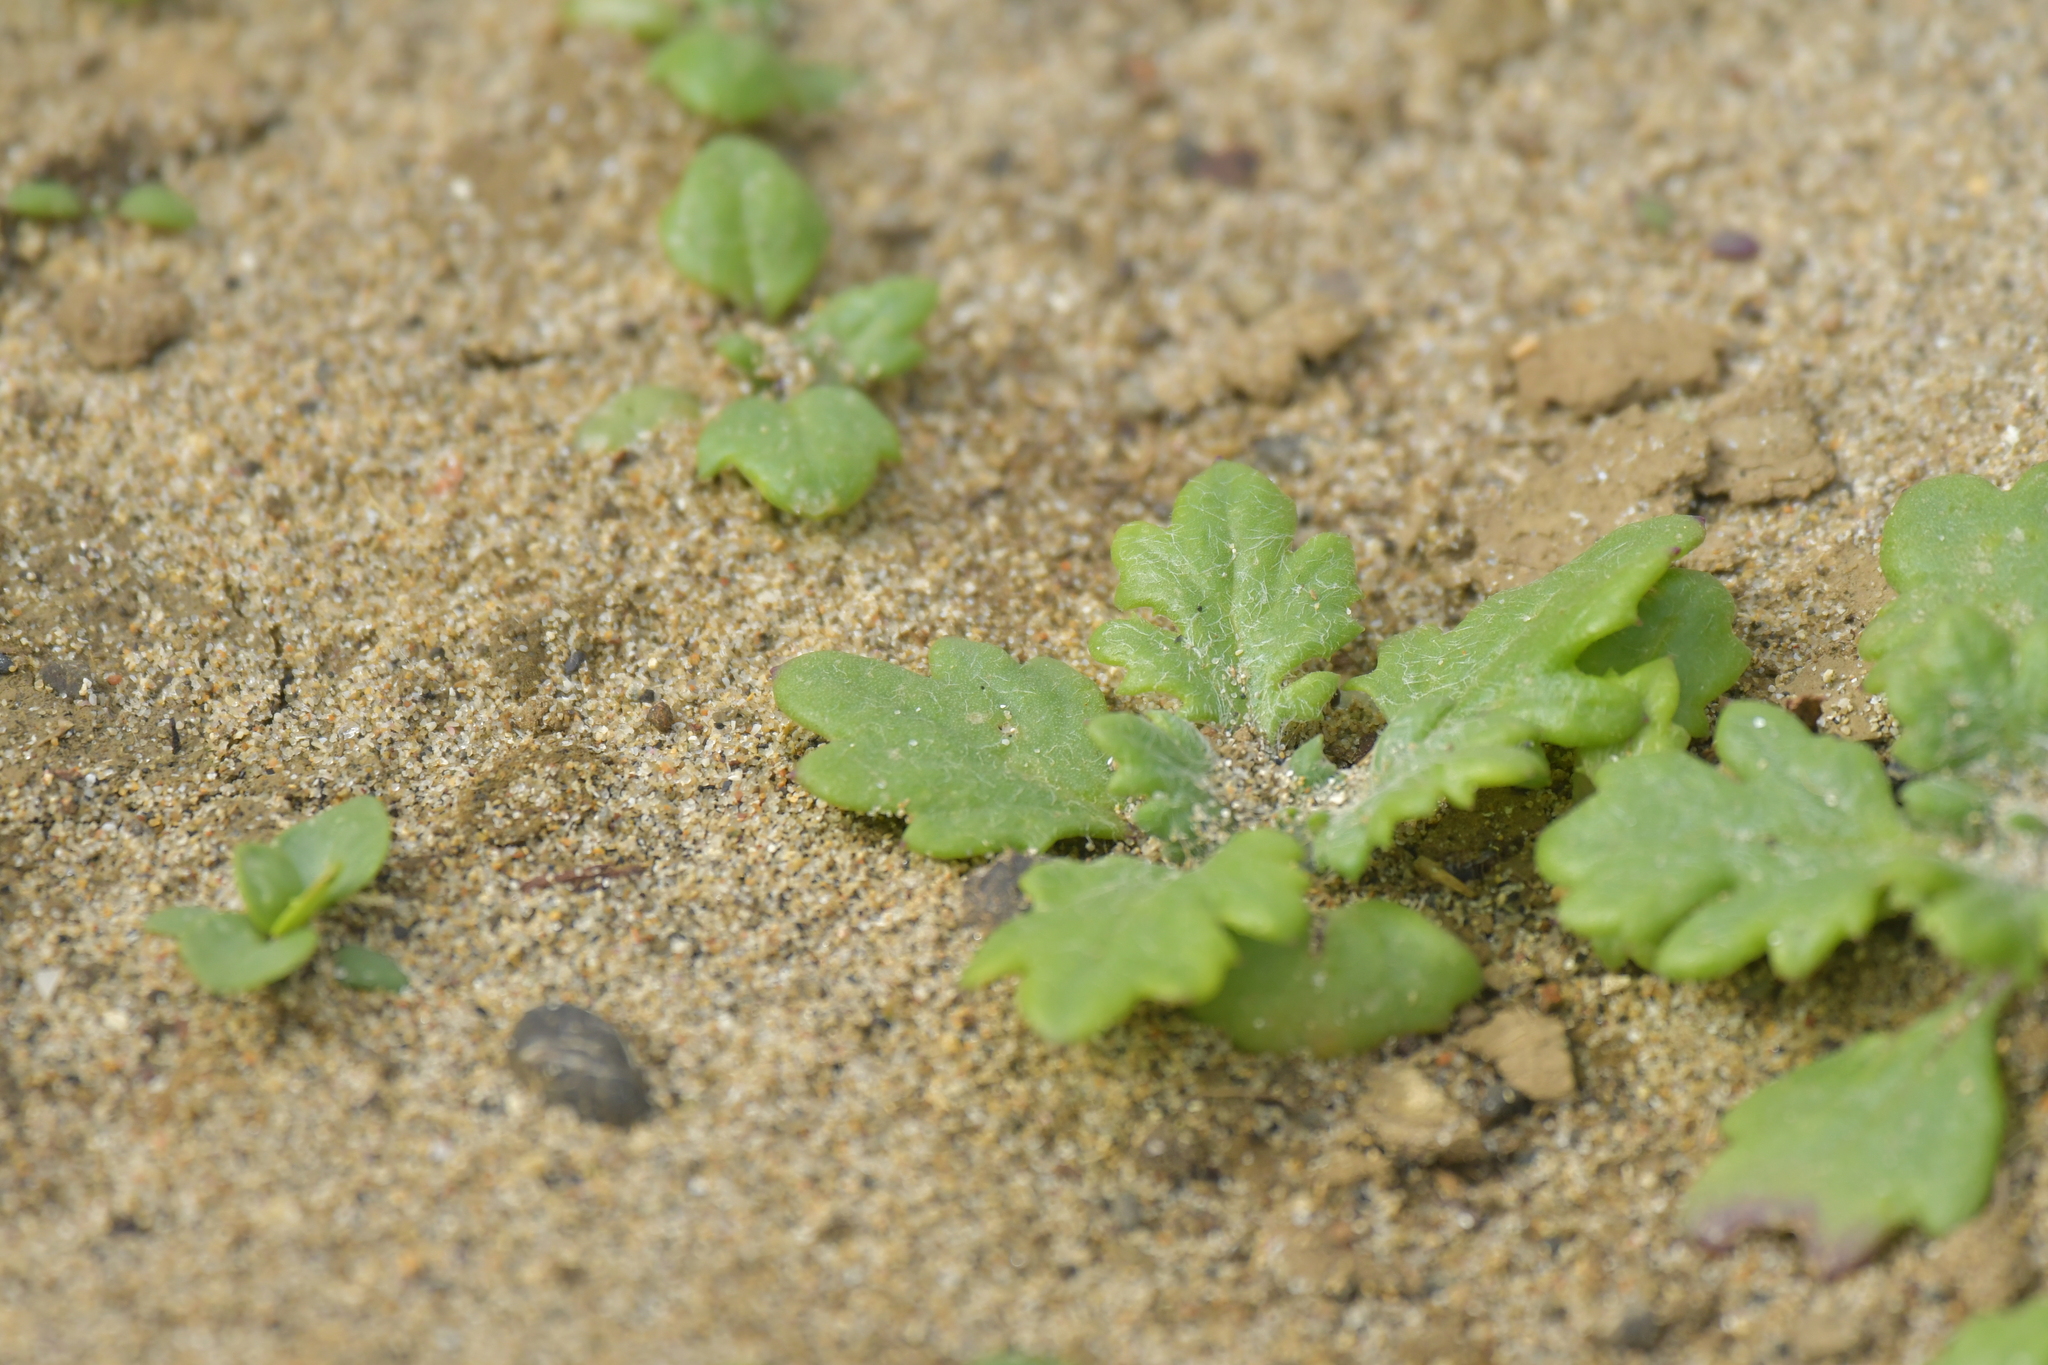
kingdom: Plantae
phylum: Tracheophyta
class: Magnoliopsida
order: Asterales
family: Asteraceae
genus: Senecio
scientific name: Senecio lautus
